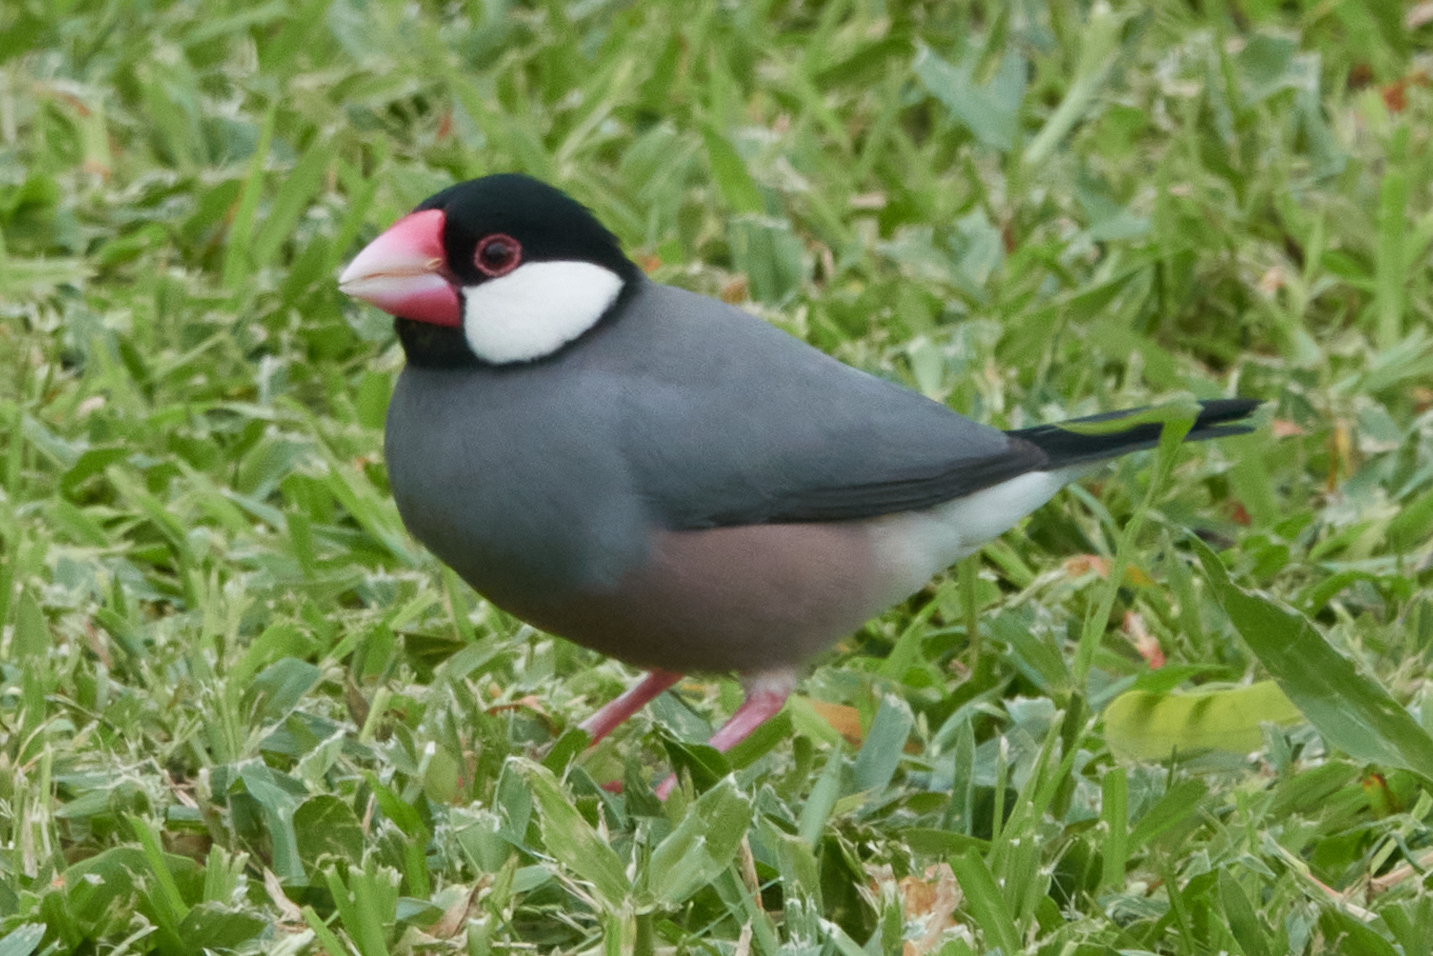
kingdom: Animalia
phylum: Chordata
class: Aves
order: Passeriformes
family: Estrildidae
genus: Lonchura
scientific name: Lonchura oryzivora
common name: Java sparrow
